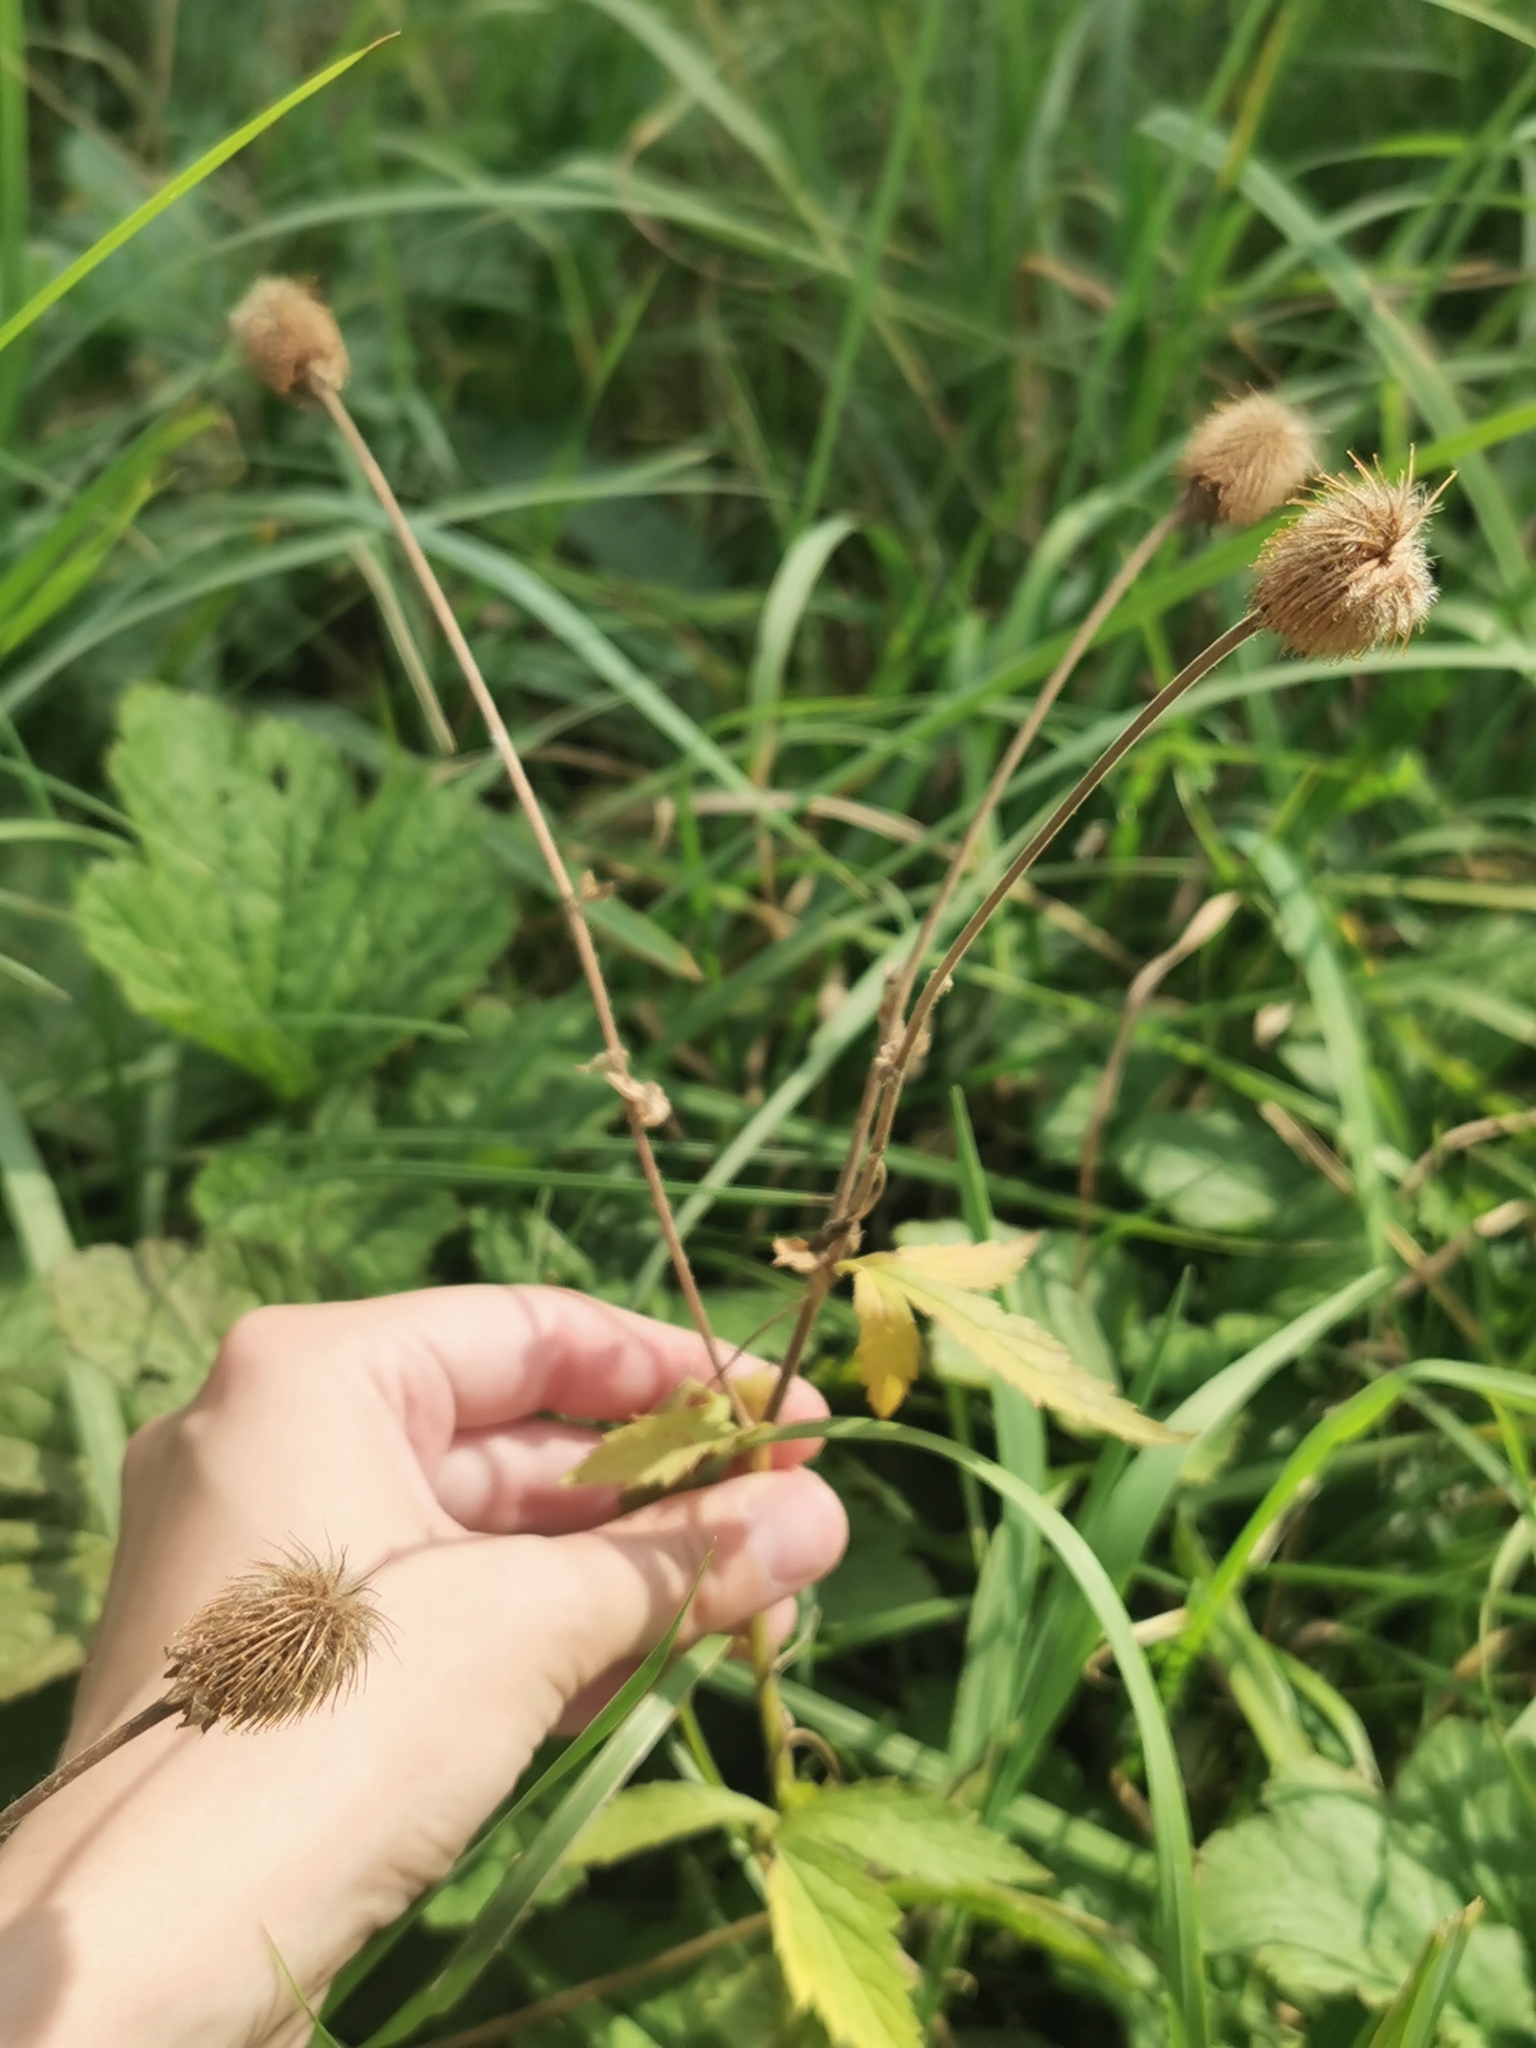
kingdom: Plantae
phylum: Tracheophyta
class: Magnoliopsida
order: Rosales
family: Rosaceae
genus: Geum
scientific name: Geum aleppicum
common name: Yellow avens
